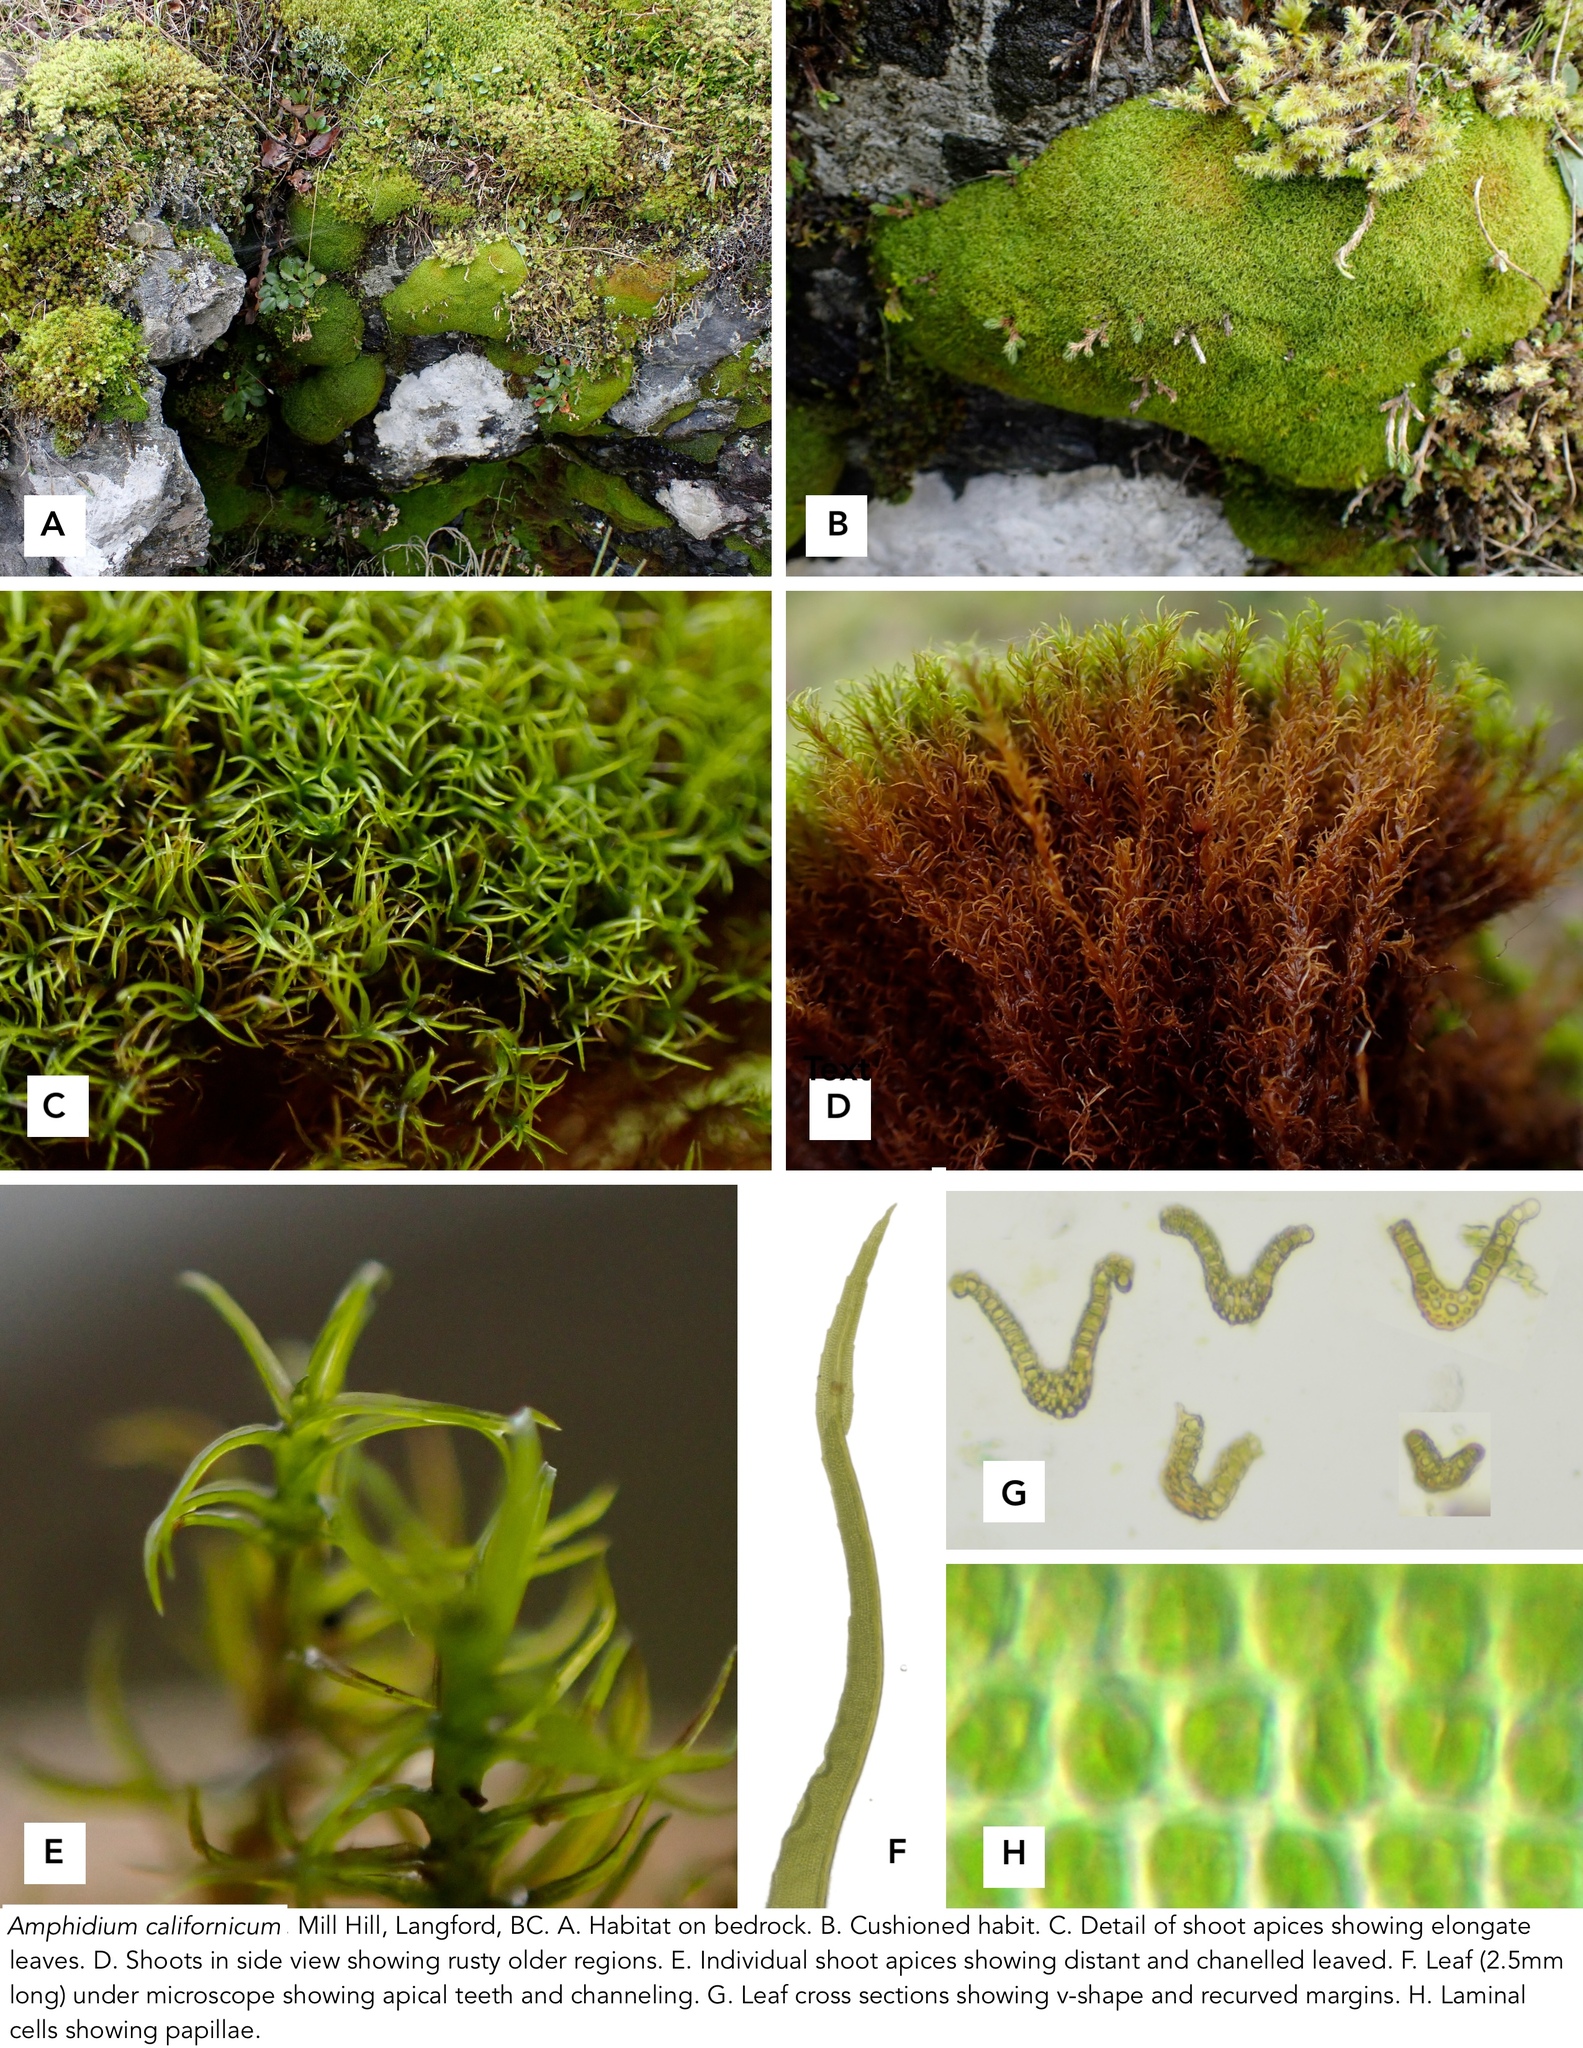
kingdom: Plantae
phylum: Bryophyta
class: Bryopsida
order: Dicranales
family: Amphidiaceae
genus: Amphidium
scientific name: Amphidium californicum
